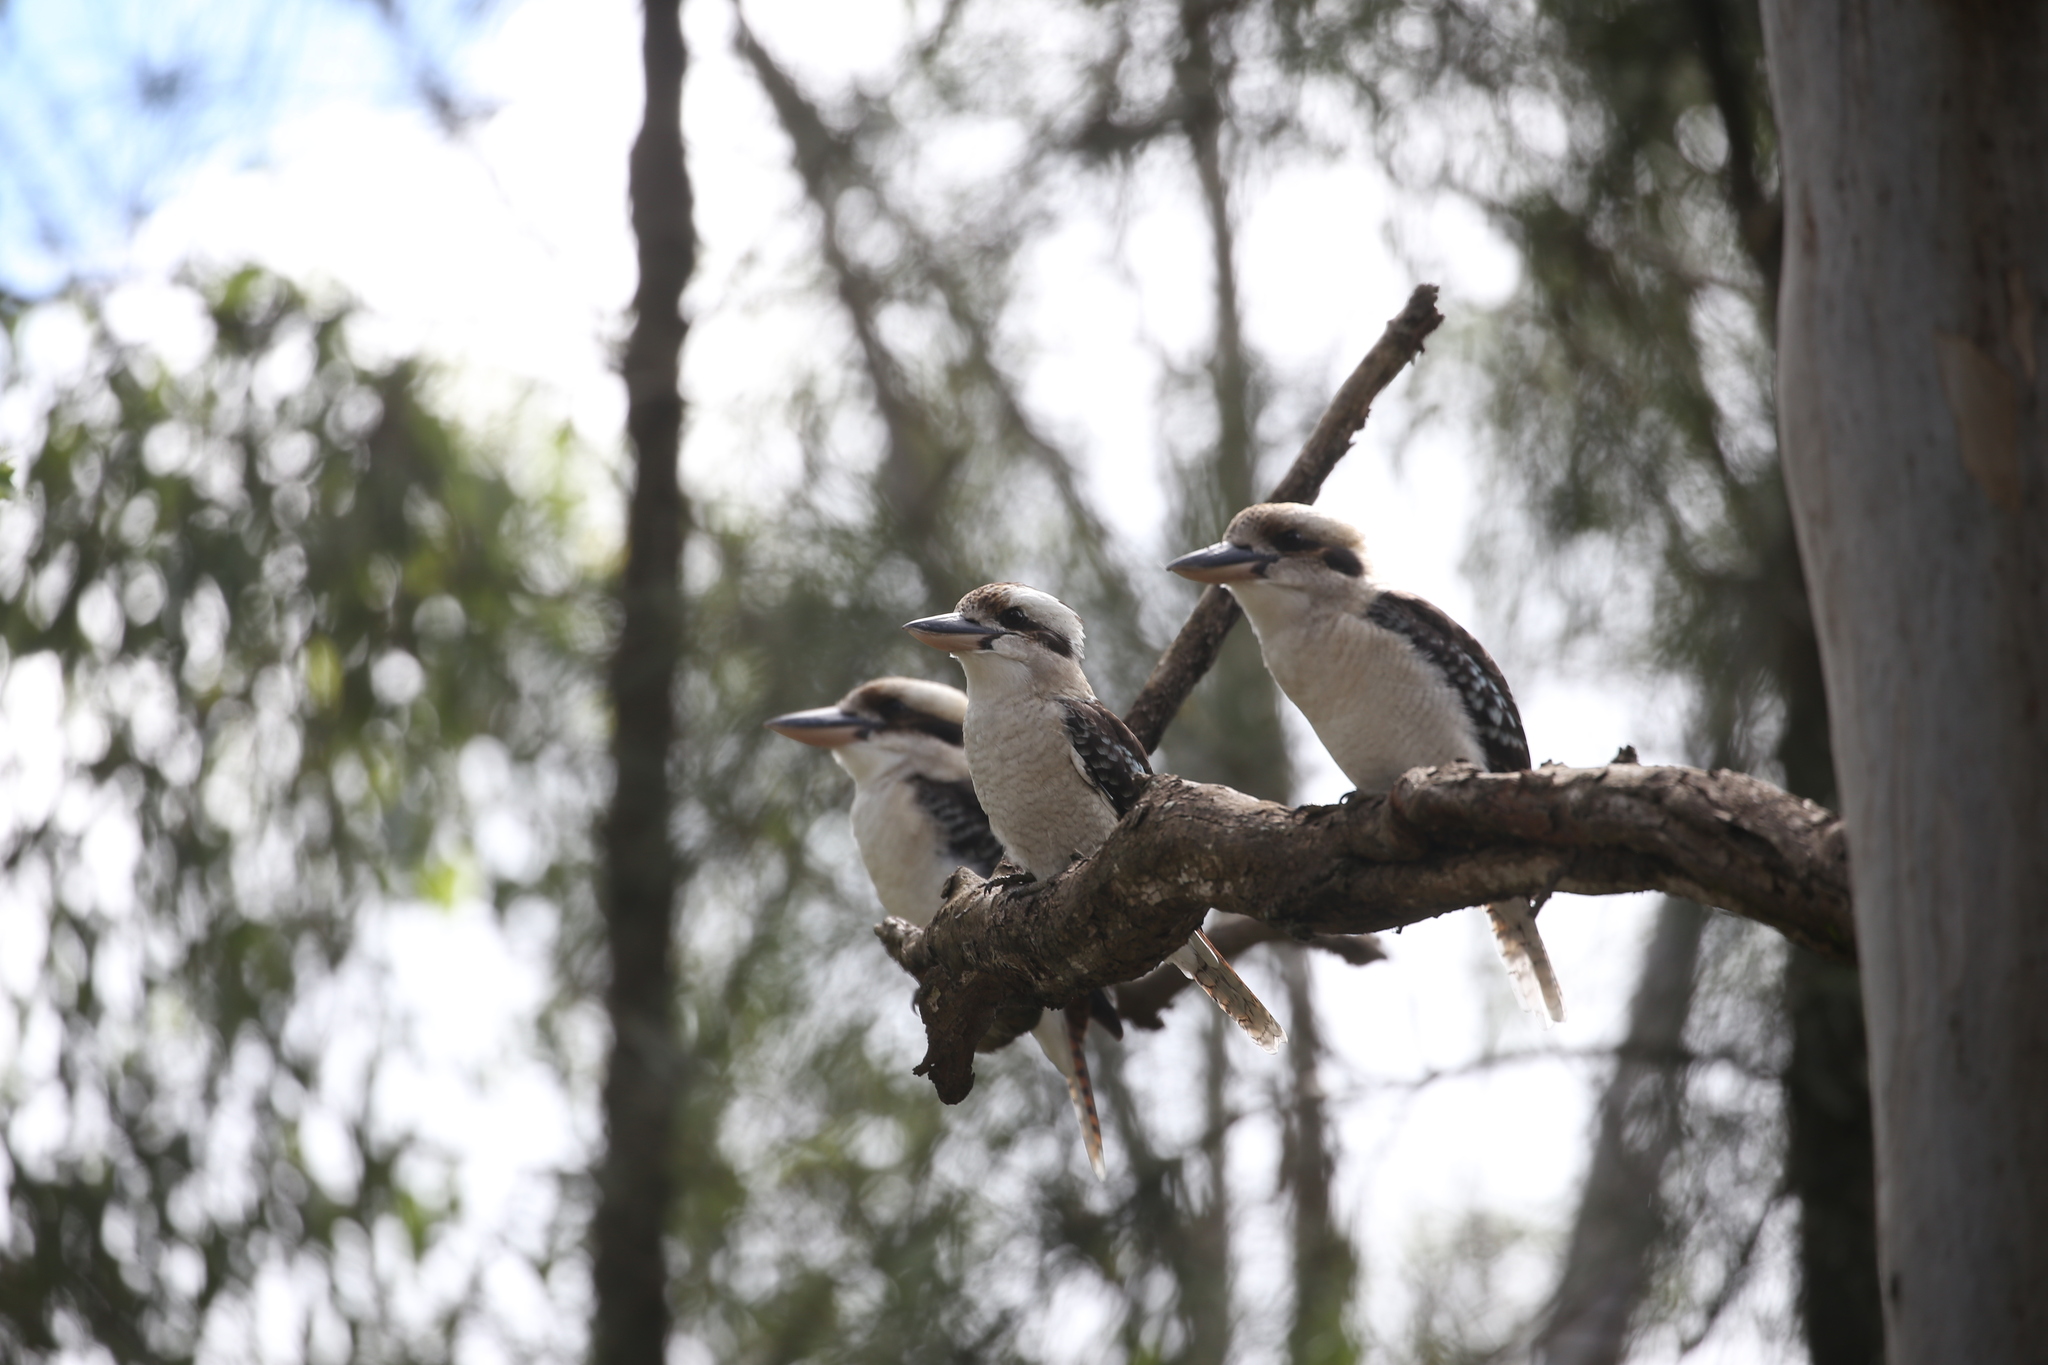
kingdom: Animalia
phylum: Chordata
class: Aves
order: Coraciiformes
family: Alcedinidae
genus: Dacelo
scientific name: Dacelo novaeguineae
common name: Laughing kookaburra
